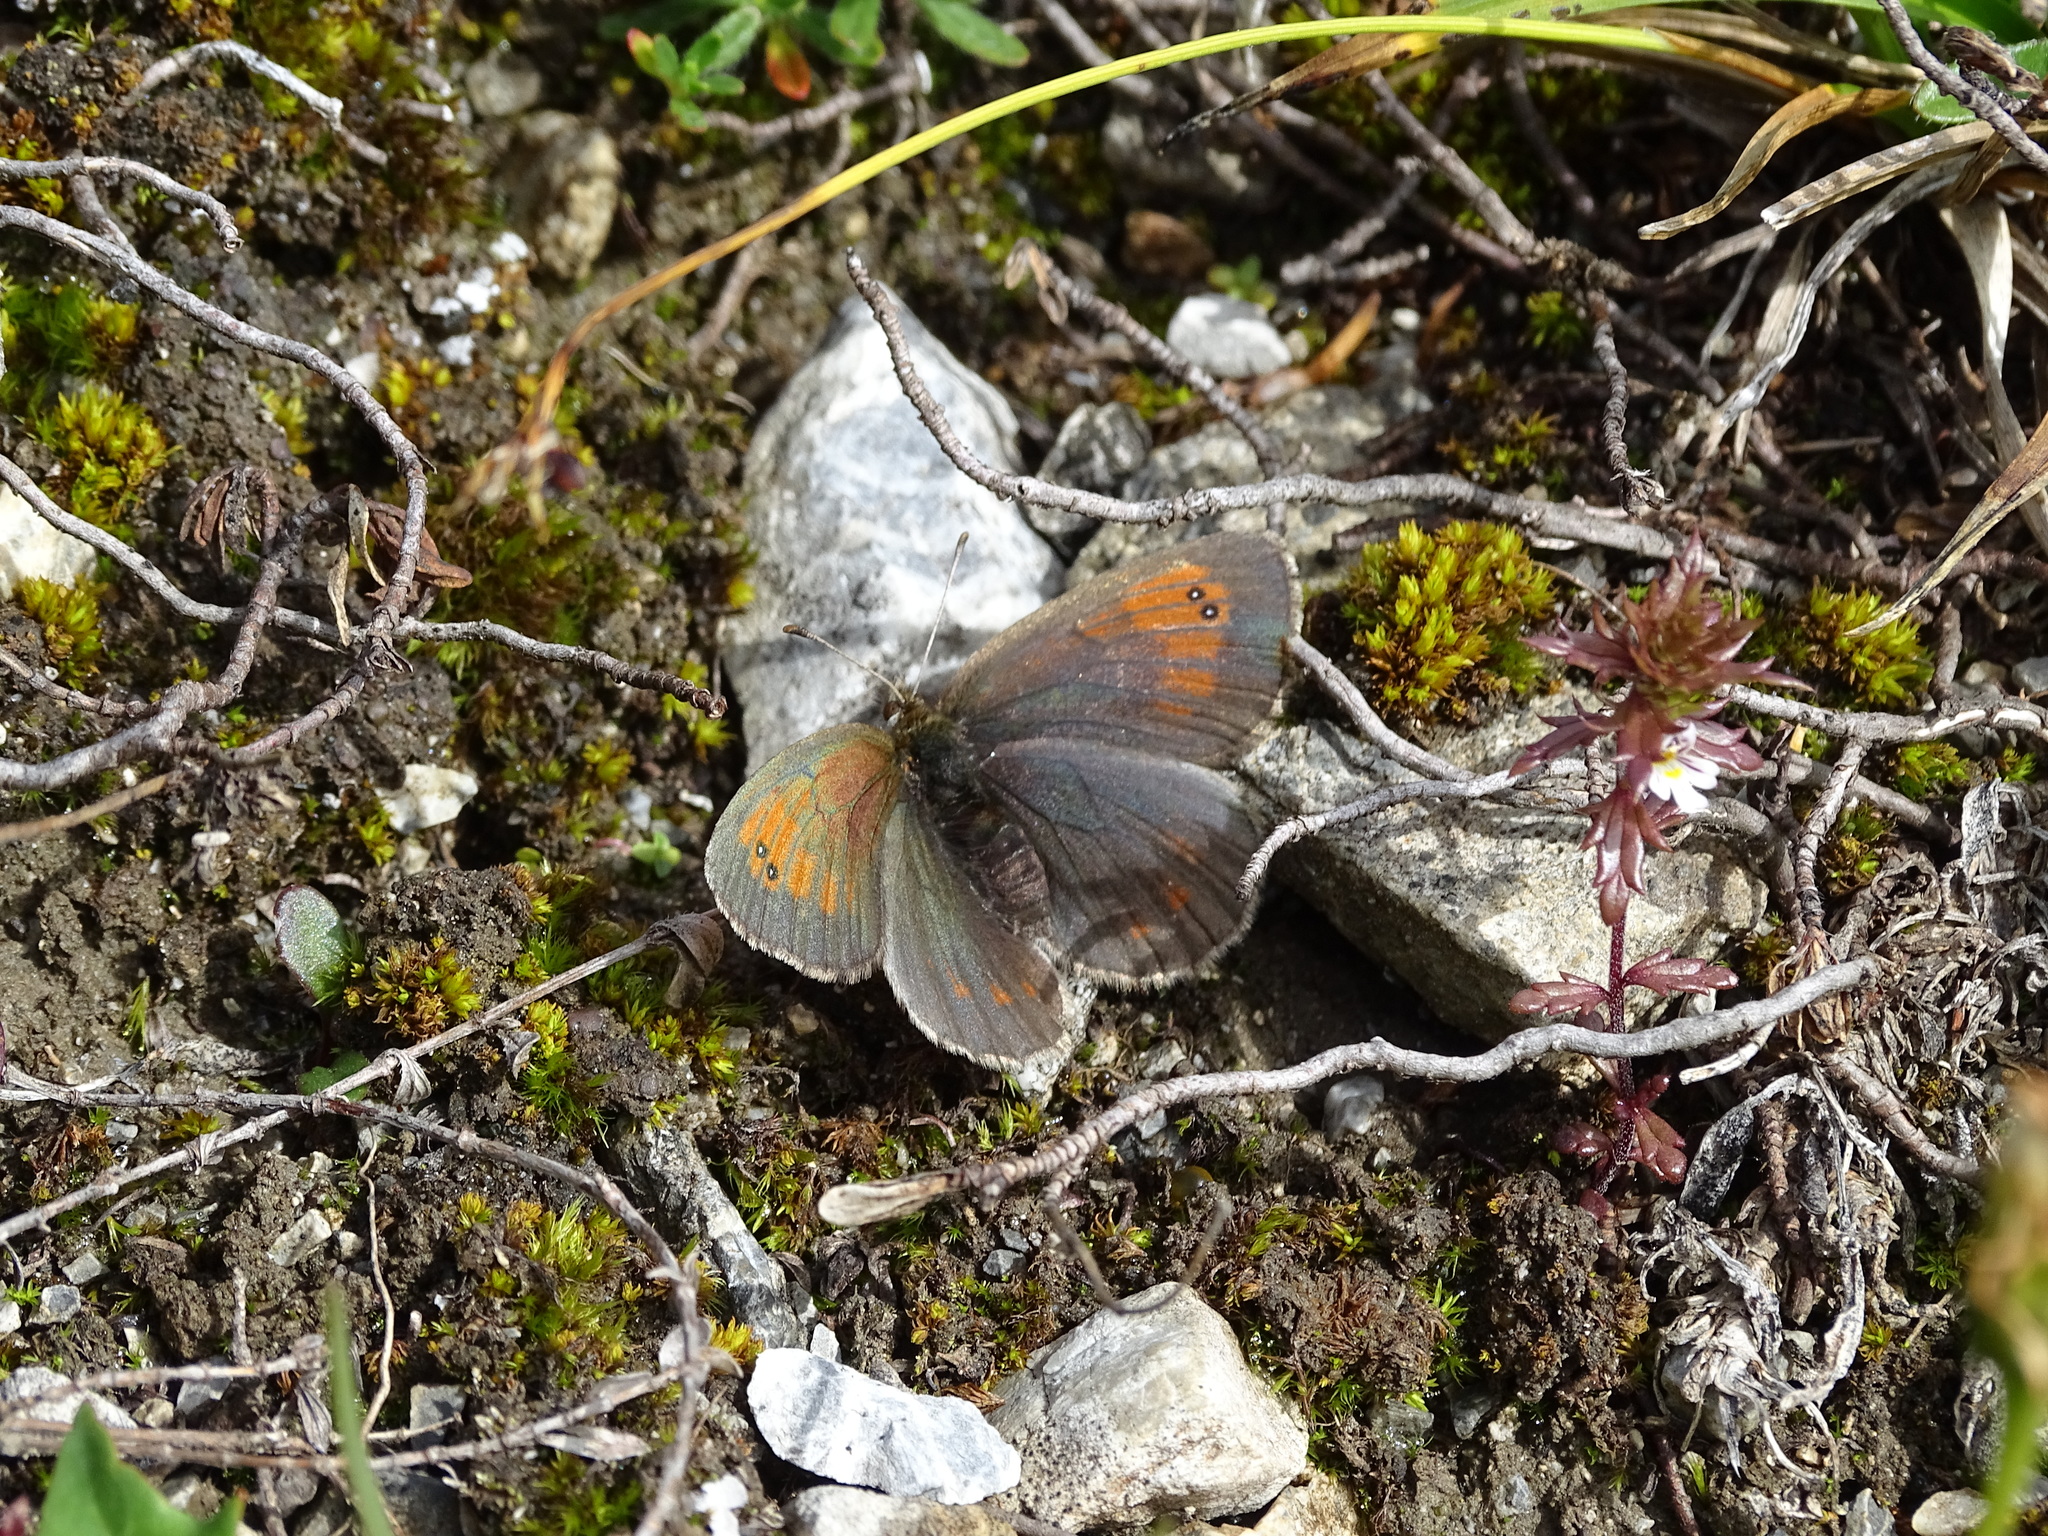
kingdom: Animalia
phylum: Arthropoda
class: Insecta
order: Lepidoptera
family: Nymphalidae
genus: Erebia
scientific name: Erebia tyndarus
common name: Swiss brassy ringlet
